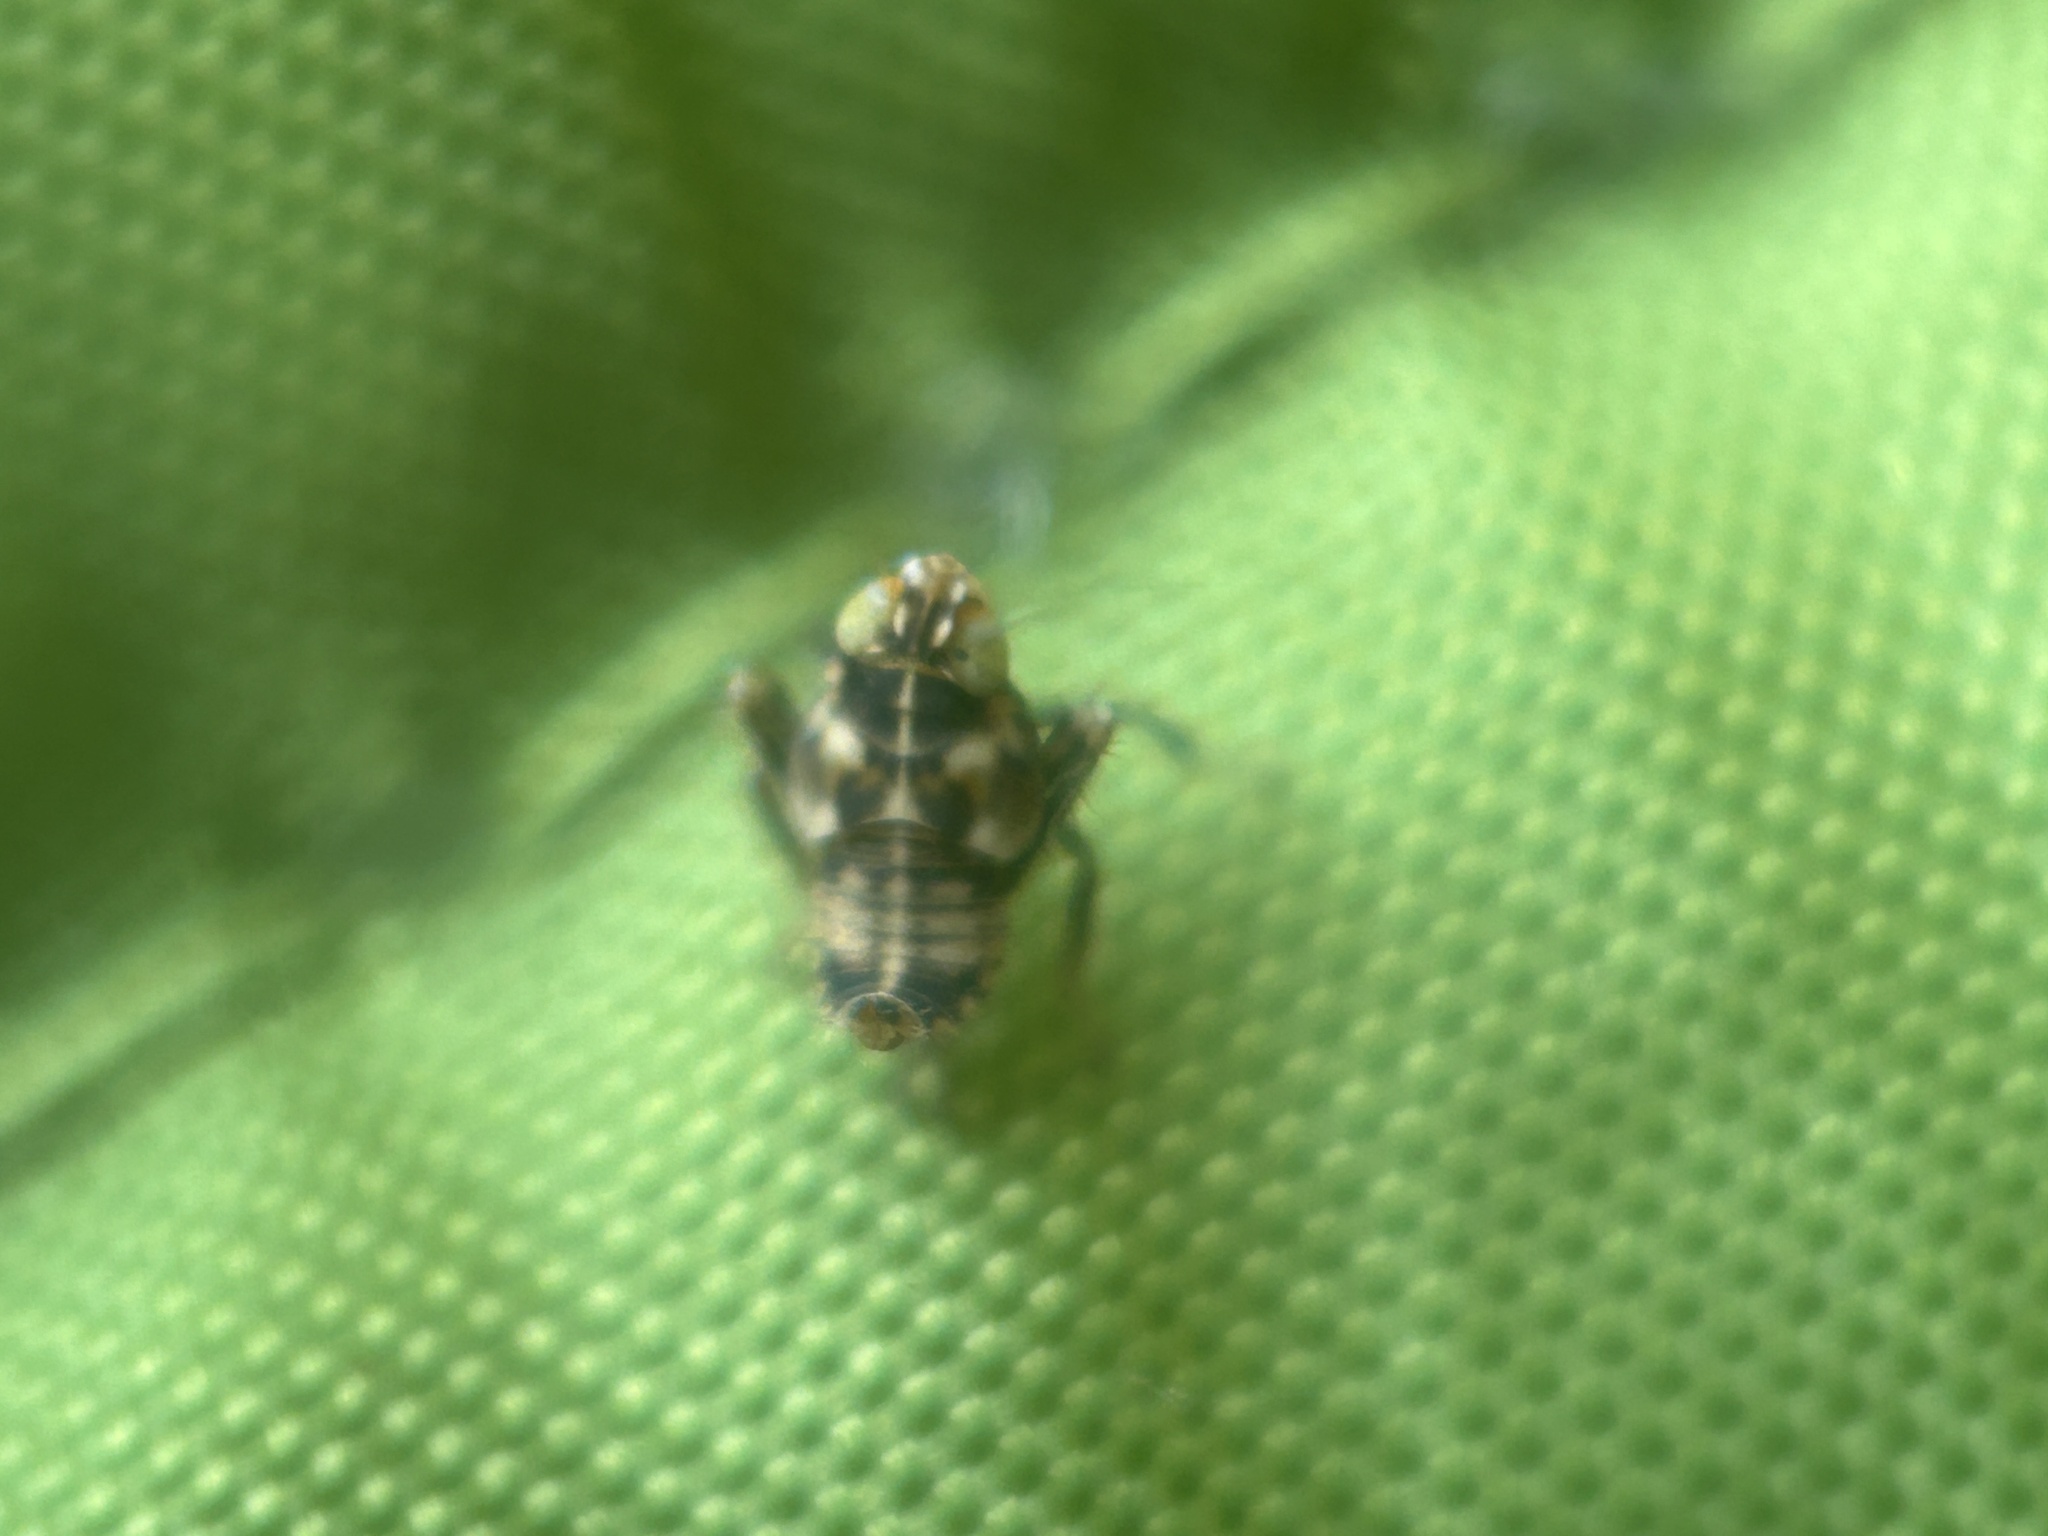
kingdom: Animalia
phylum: Arthropoda
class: Insecta
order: Hemiptera
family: Cicadellidae
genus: Jikradia
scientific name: Jikradia olitoria
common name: Coppery leafhopper
